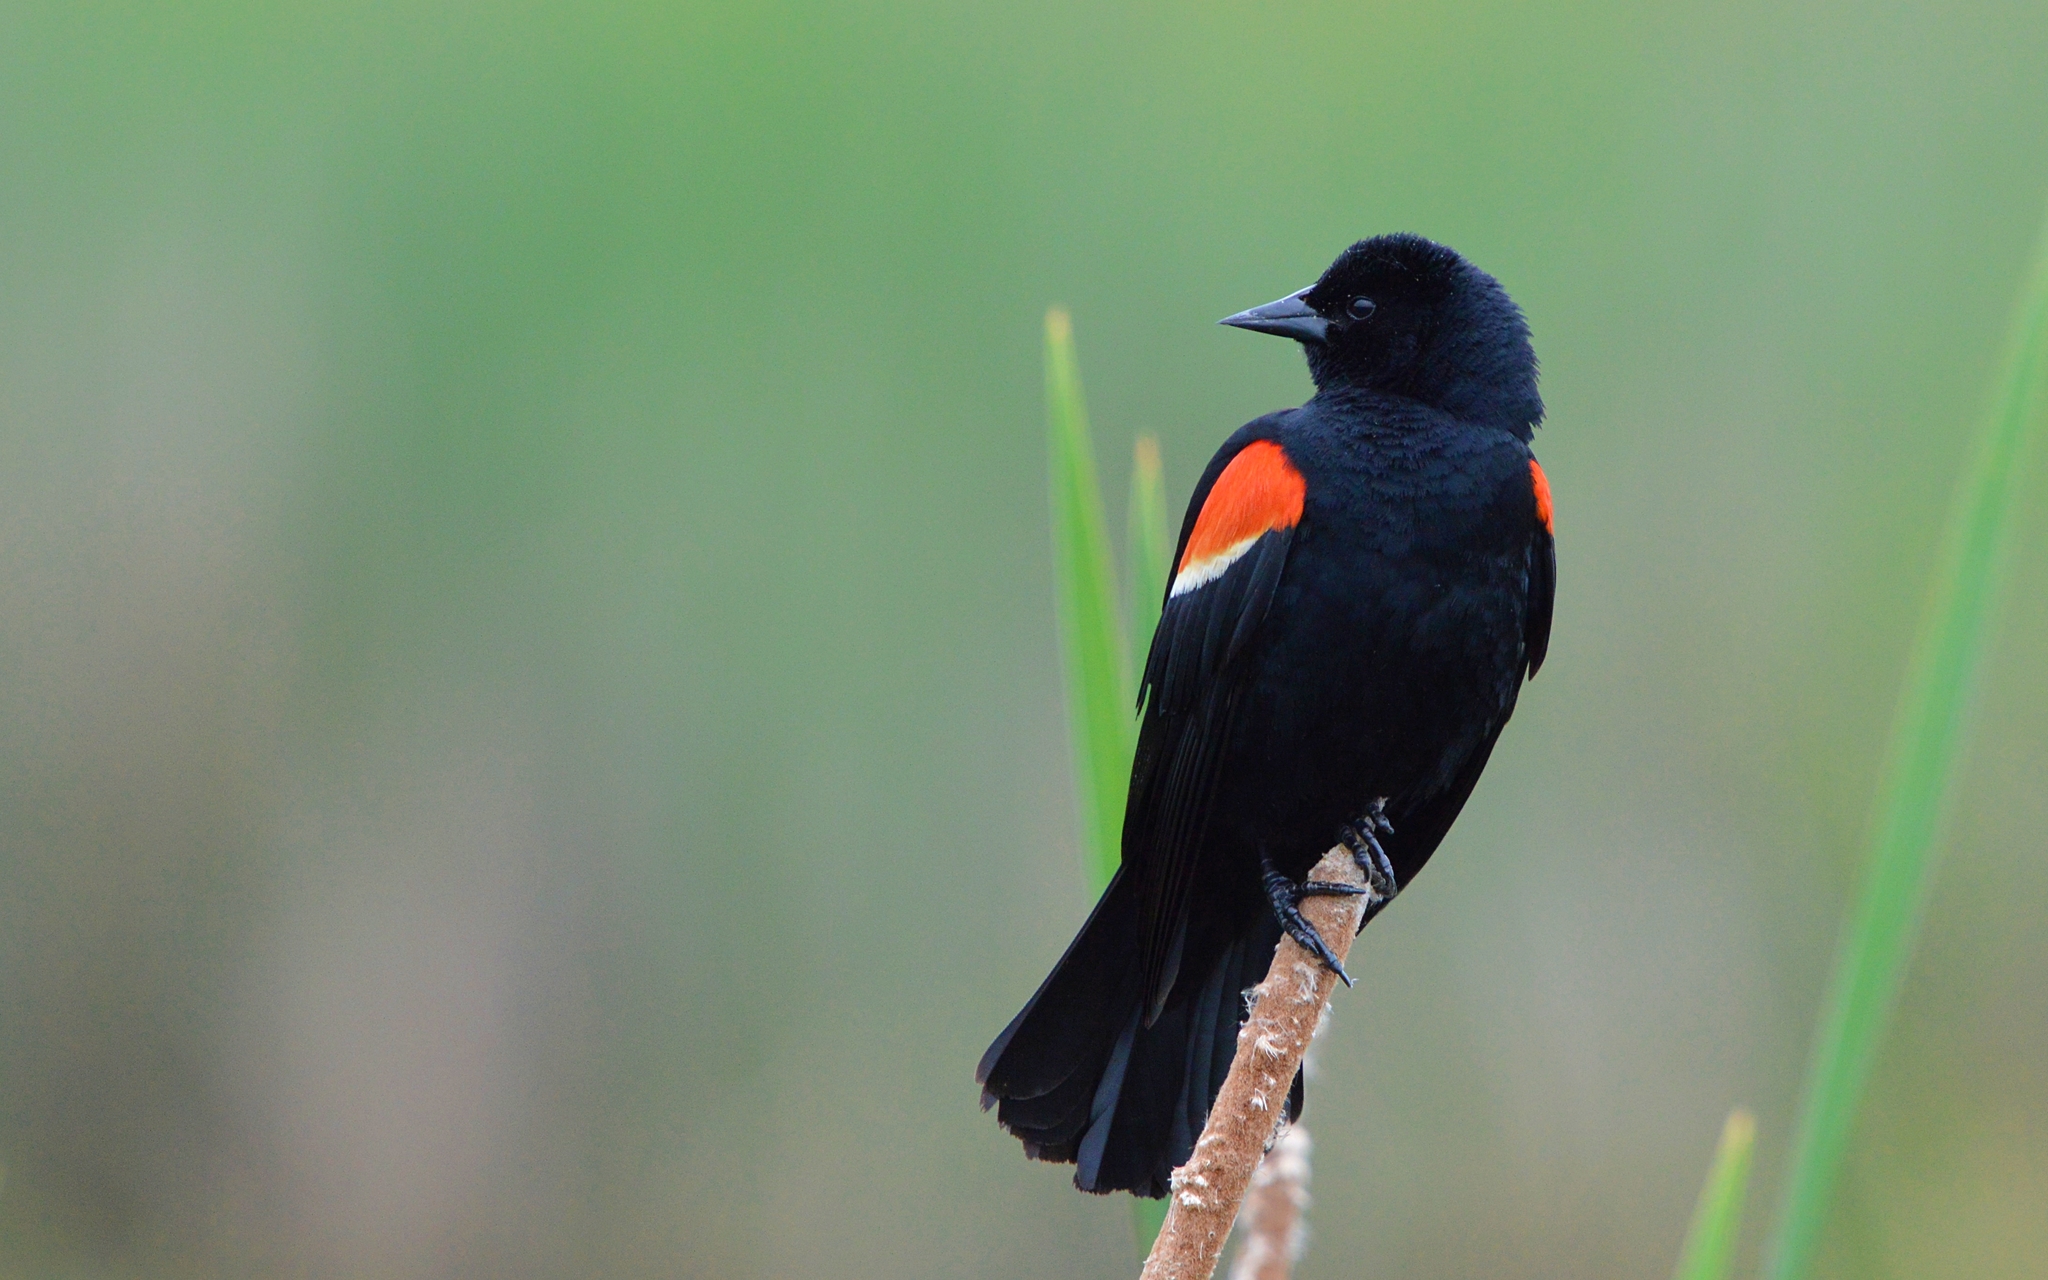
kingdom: Animalia
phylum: Chordata
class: Aves
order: Passeriformes
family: Icteridae
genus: Agelaius
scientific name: Agelaius phoeniceus
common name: Red-winged blackbird
